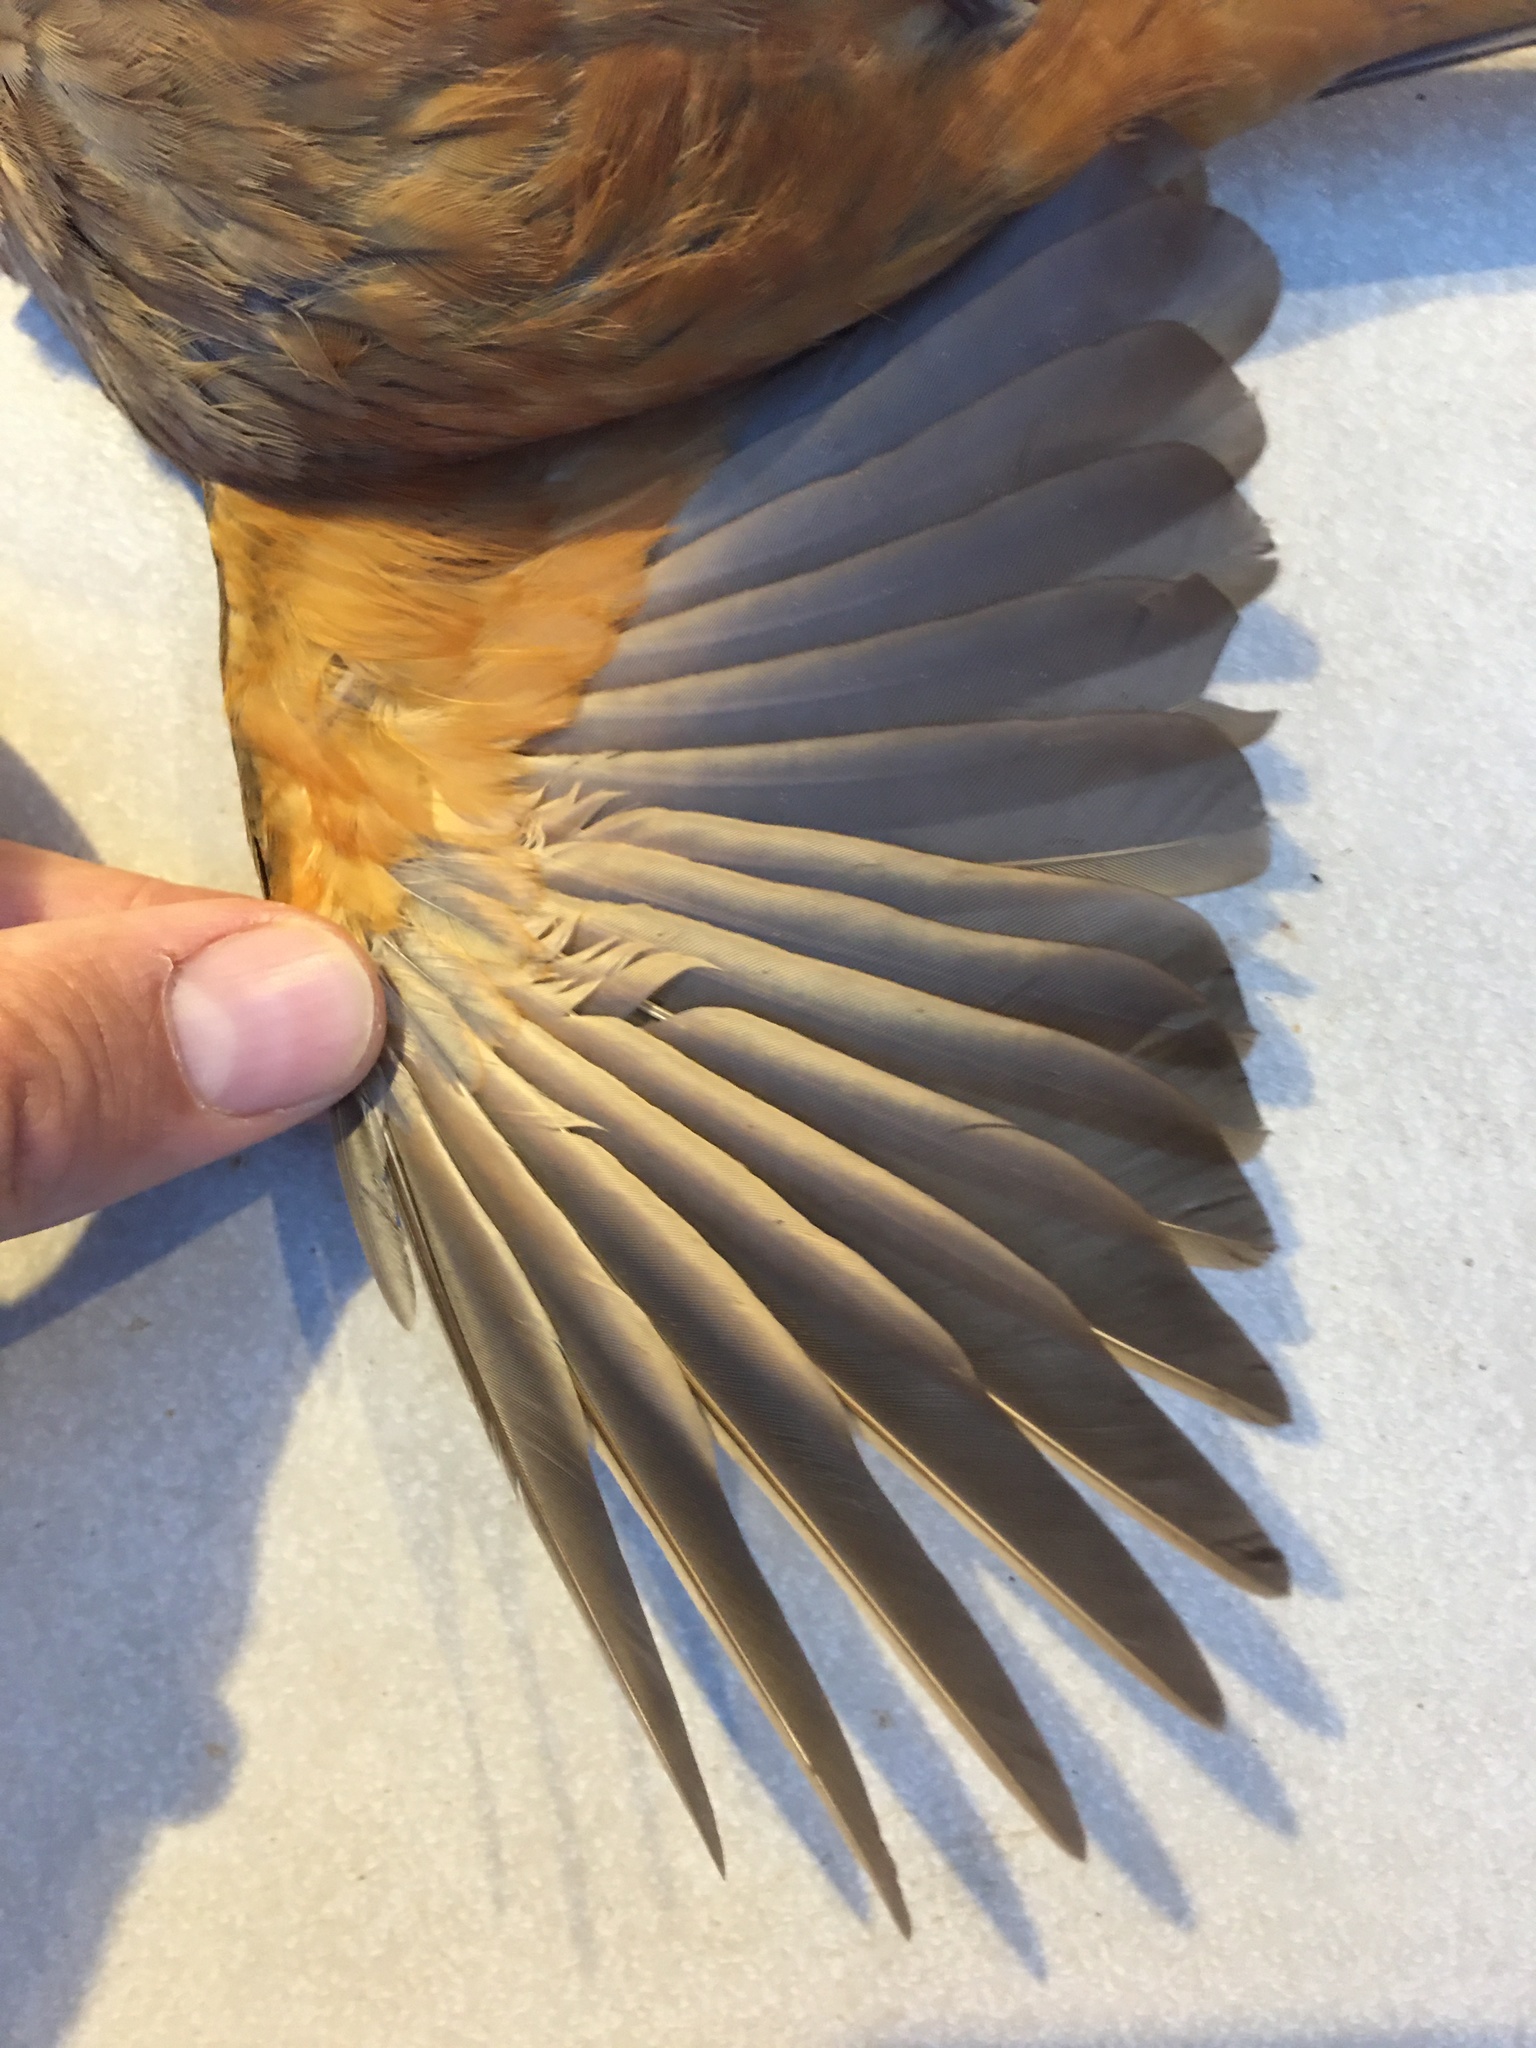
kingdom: Animalia
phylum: Chordata
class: Aves
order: Passeriformes
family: Turdidae
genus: Turdus
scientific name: Turdus rufiventris
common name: Rufous-bellied thrush
